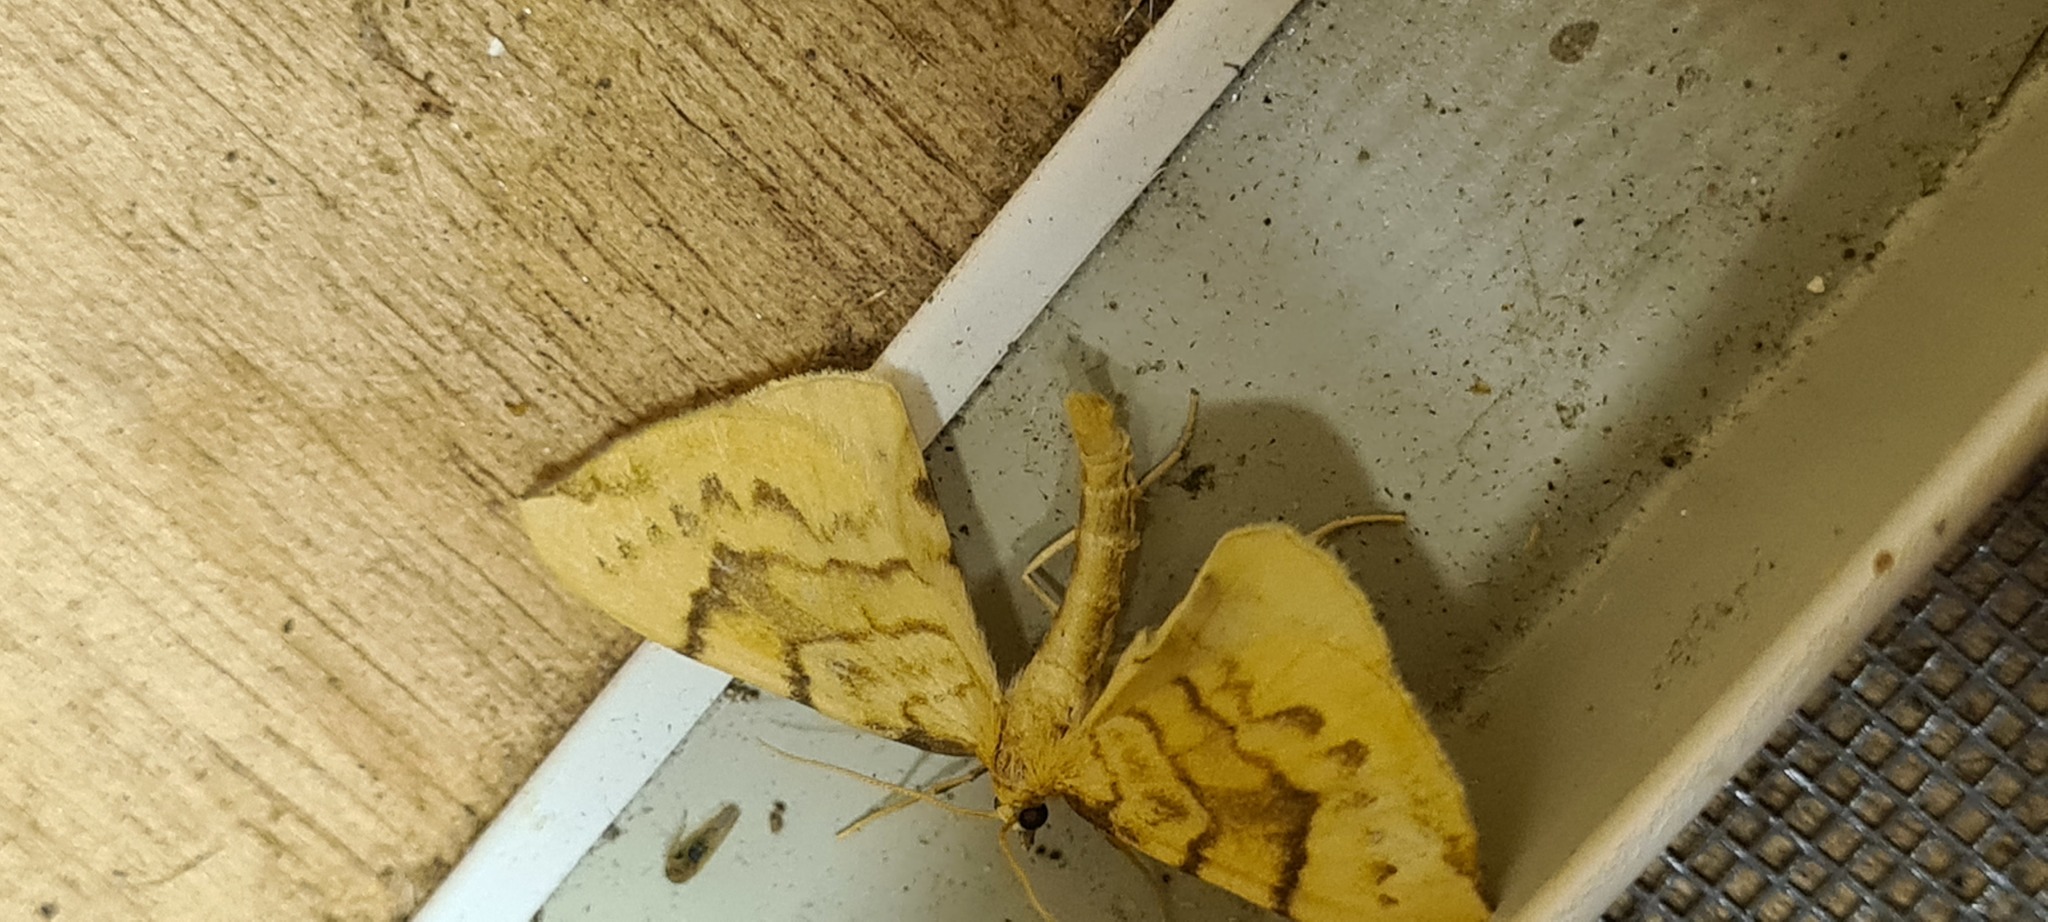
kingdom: Animalia
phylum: Arthropoda
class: Insecta
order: Lepidoptera
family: Geometridae
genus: Eulithis
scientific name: Eulithis pyraliata
